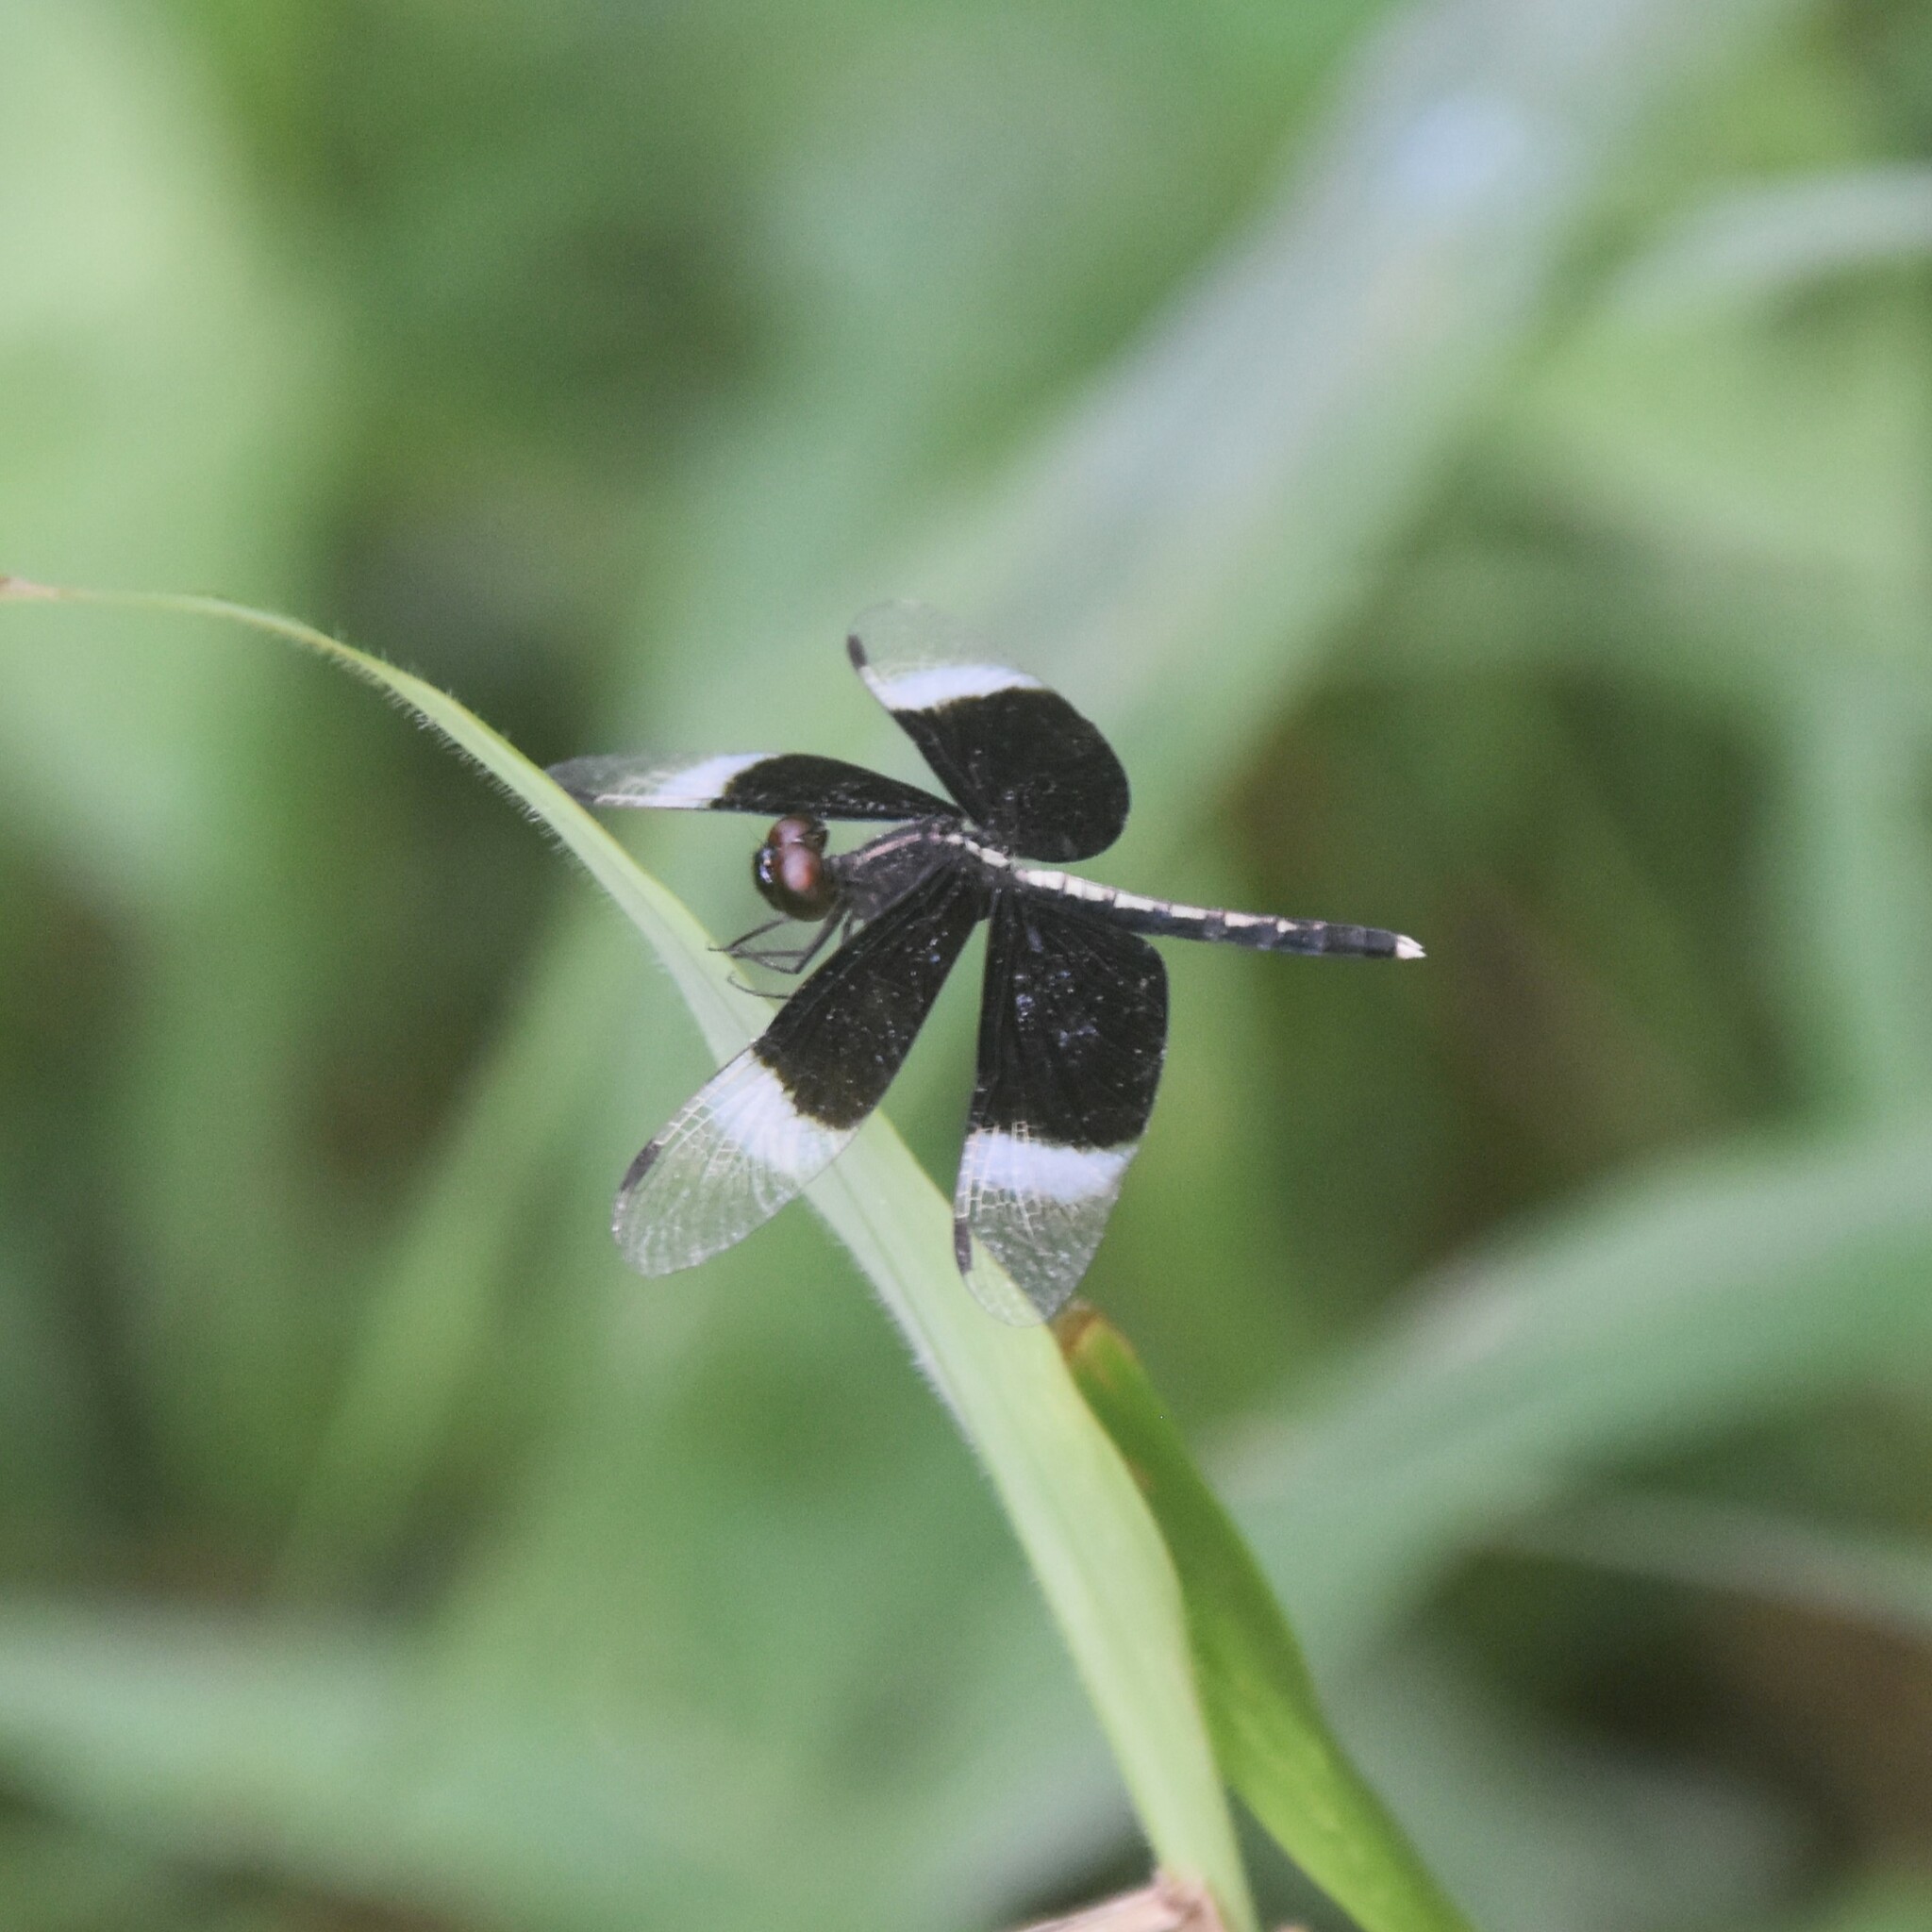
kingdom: Animalia
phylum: Arthropoda
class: Insecta
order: Odonata
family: Libellulidae
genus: Neurothemis
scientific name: Neurothemis tullia
